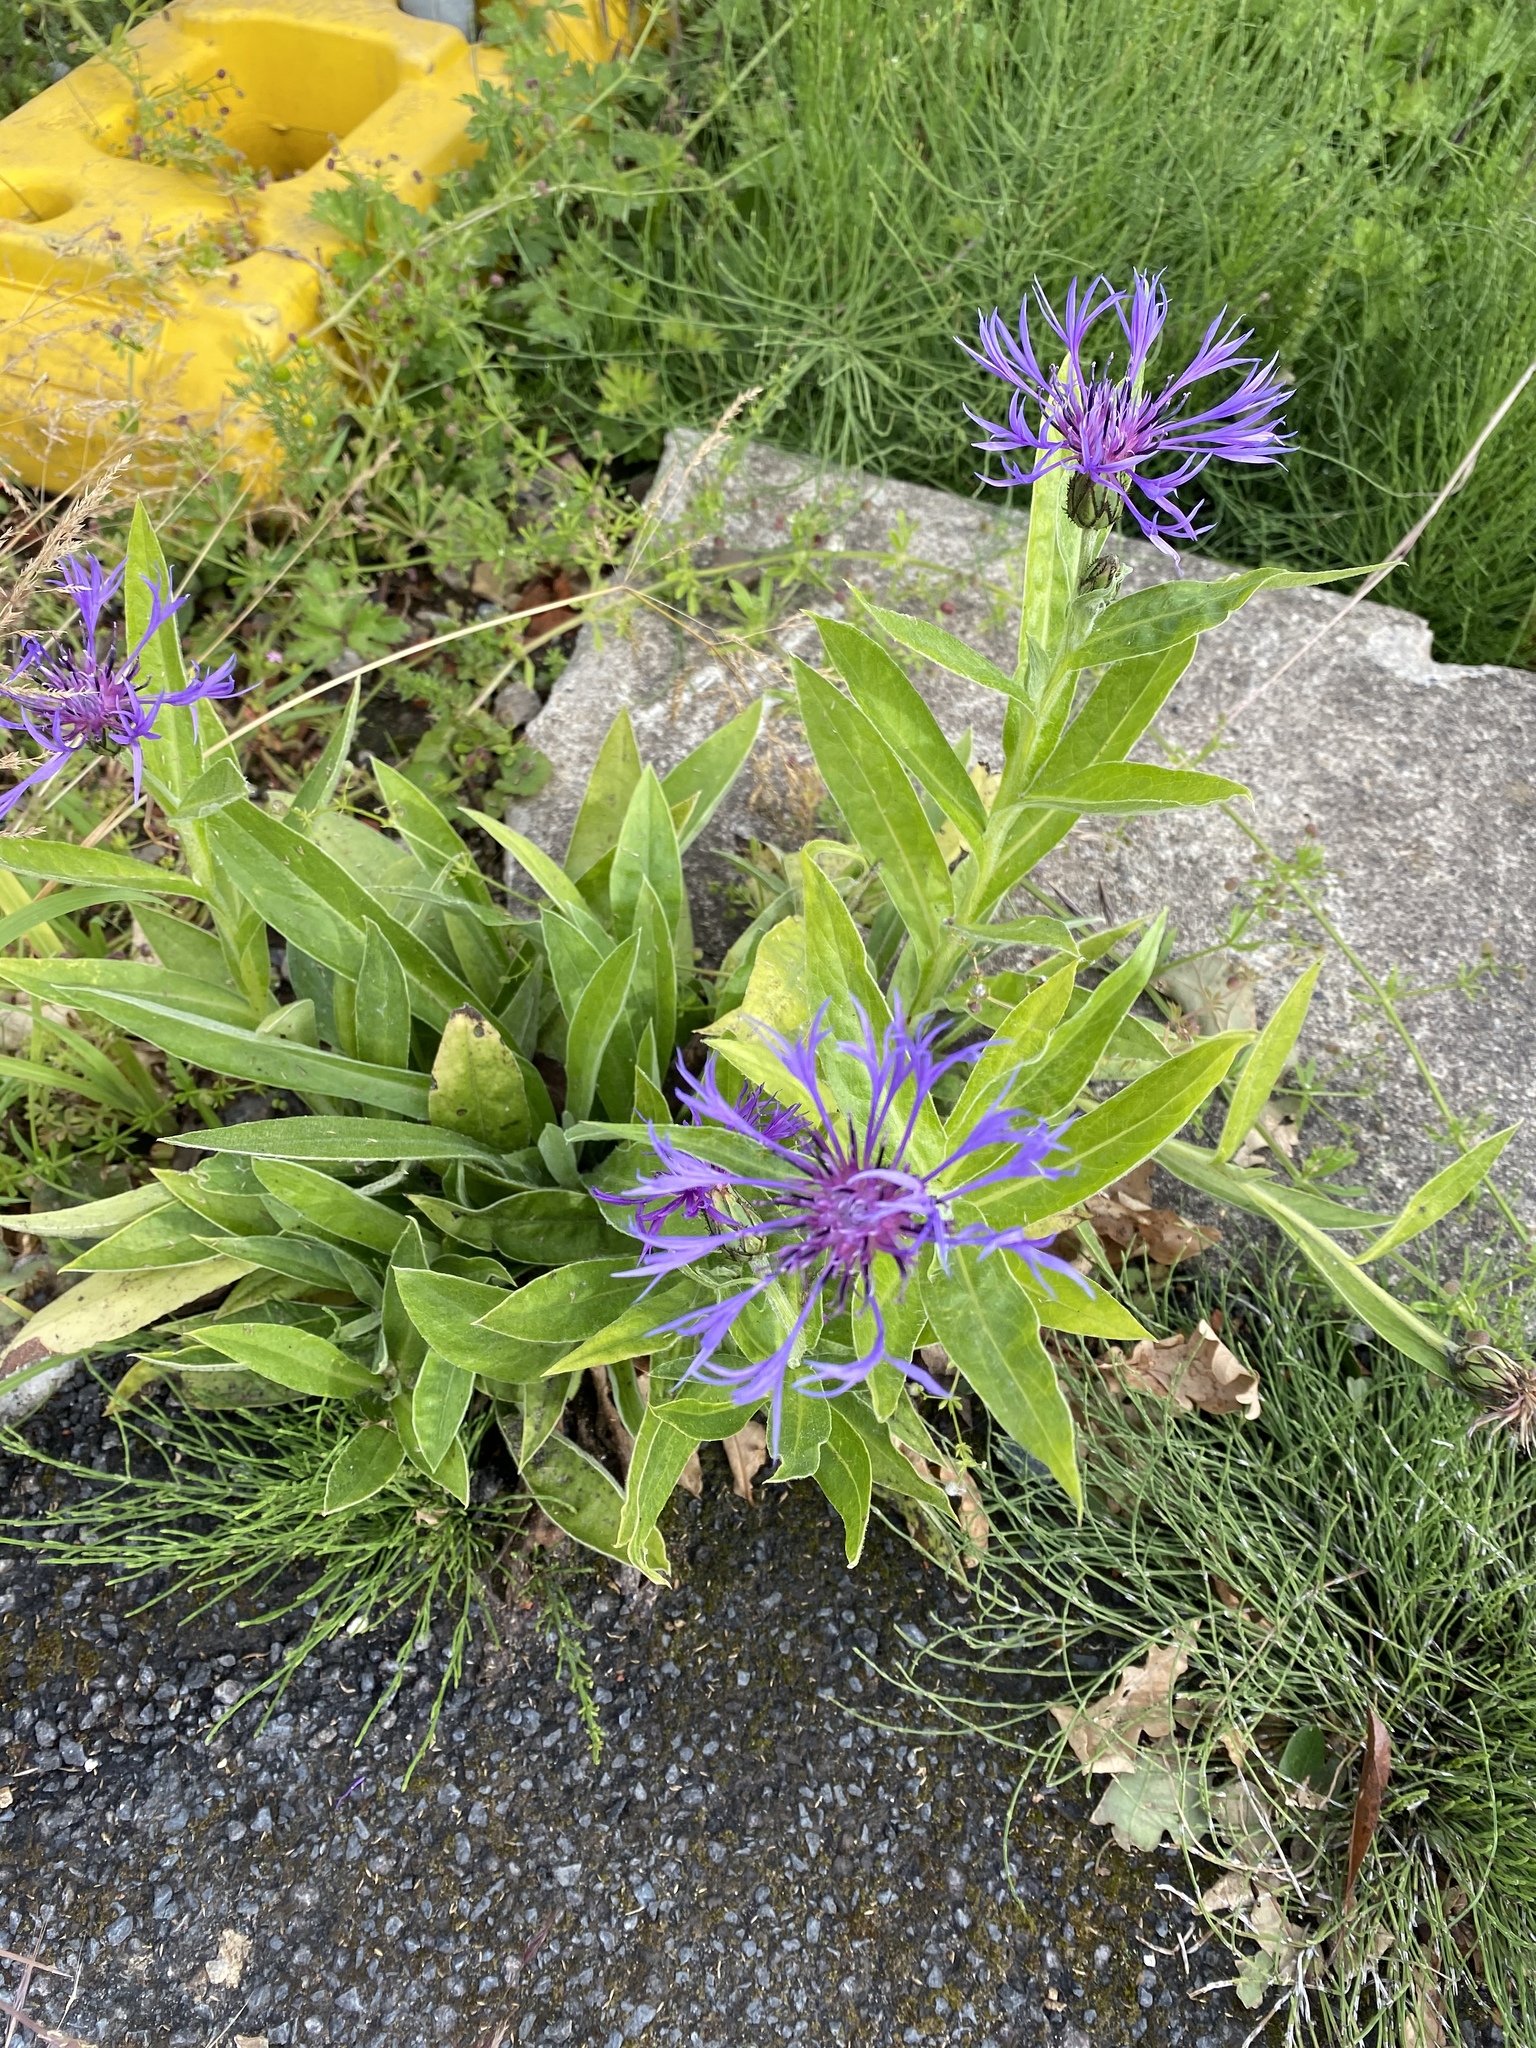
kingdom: Plantae
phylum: Tracheophyta
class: Magnoliopsida
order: Asterales
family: Asteraceae
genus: Centaurea
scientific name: Centaurea montana
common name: Perennial cornflower
